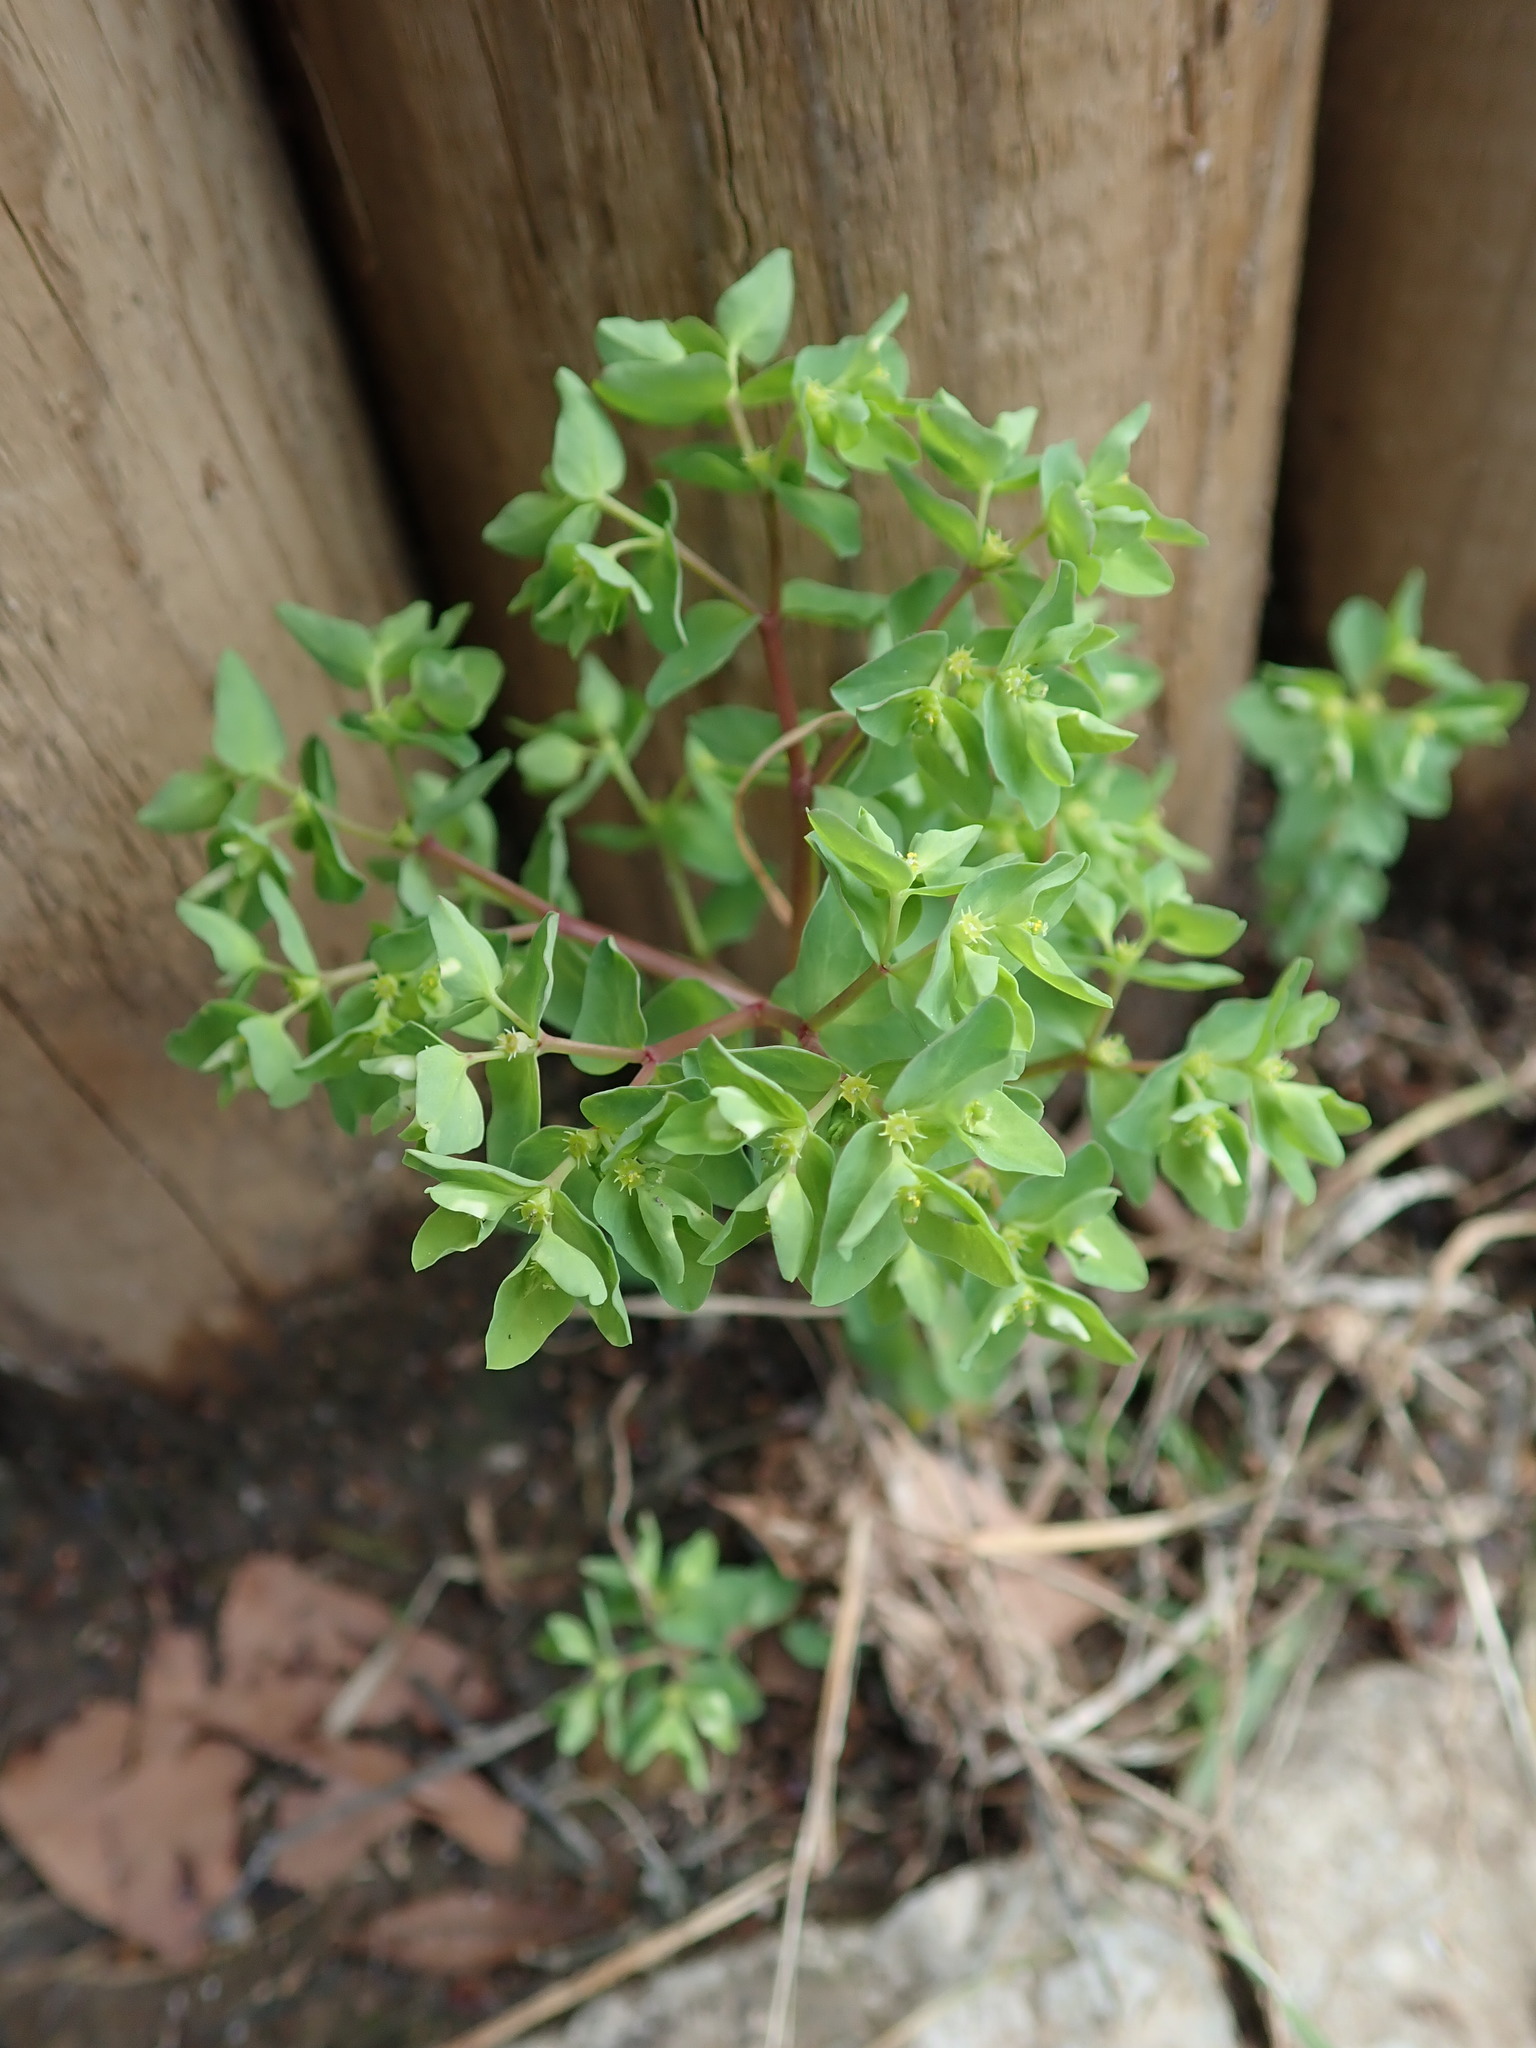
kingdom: Plantae
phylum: Tracheophyta
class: Magnoliopsida
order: Malpighiales
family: Euphorbiaceae
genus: Euphorbia
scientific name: Euphorbia peplus
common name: Petty spurge
